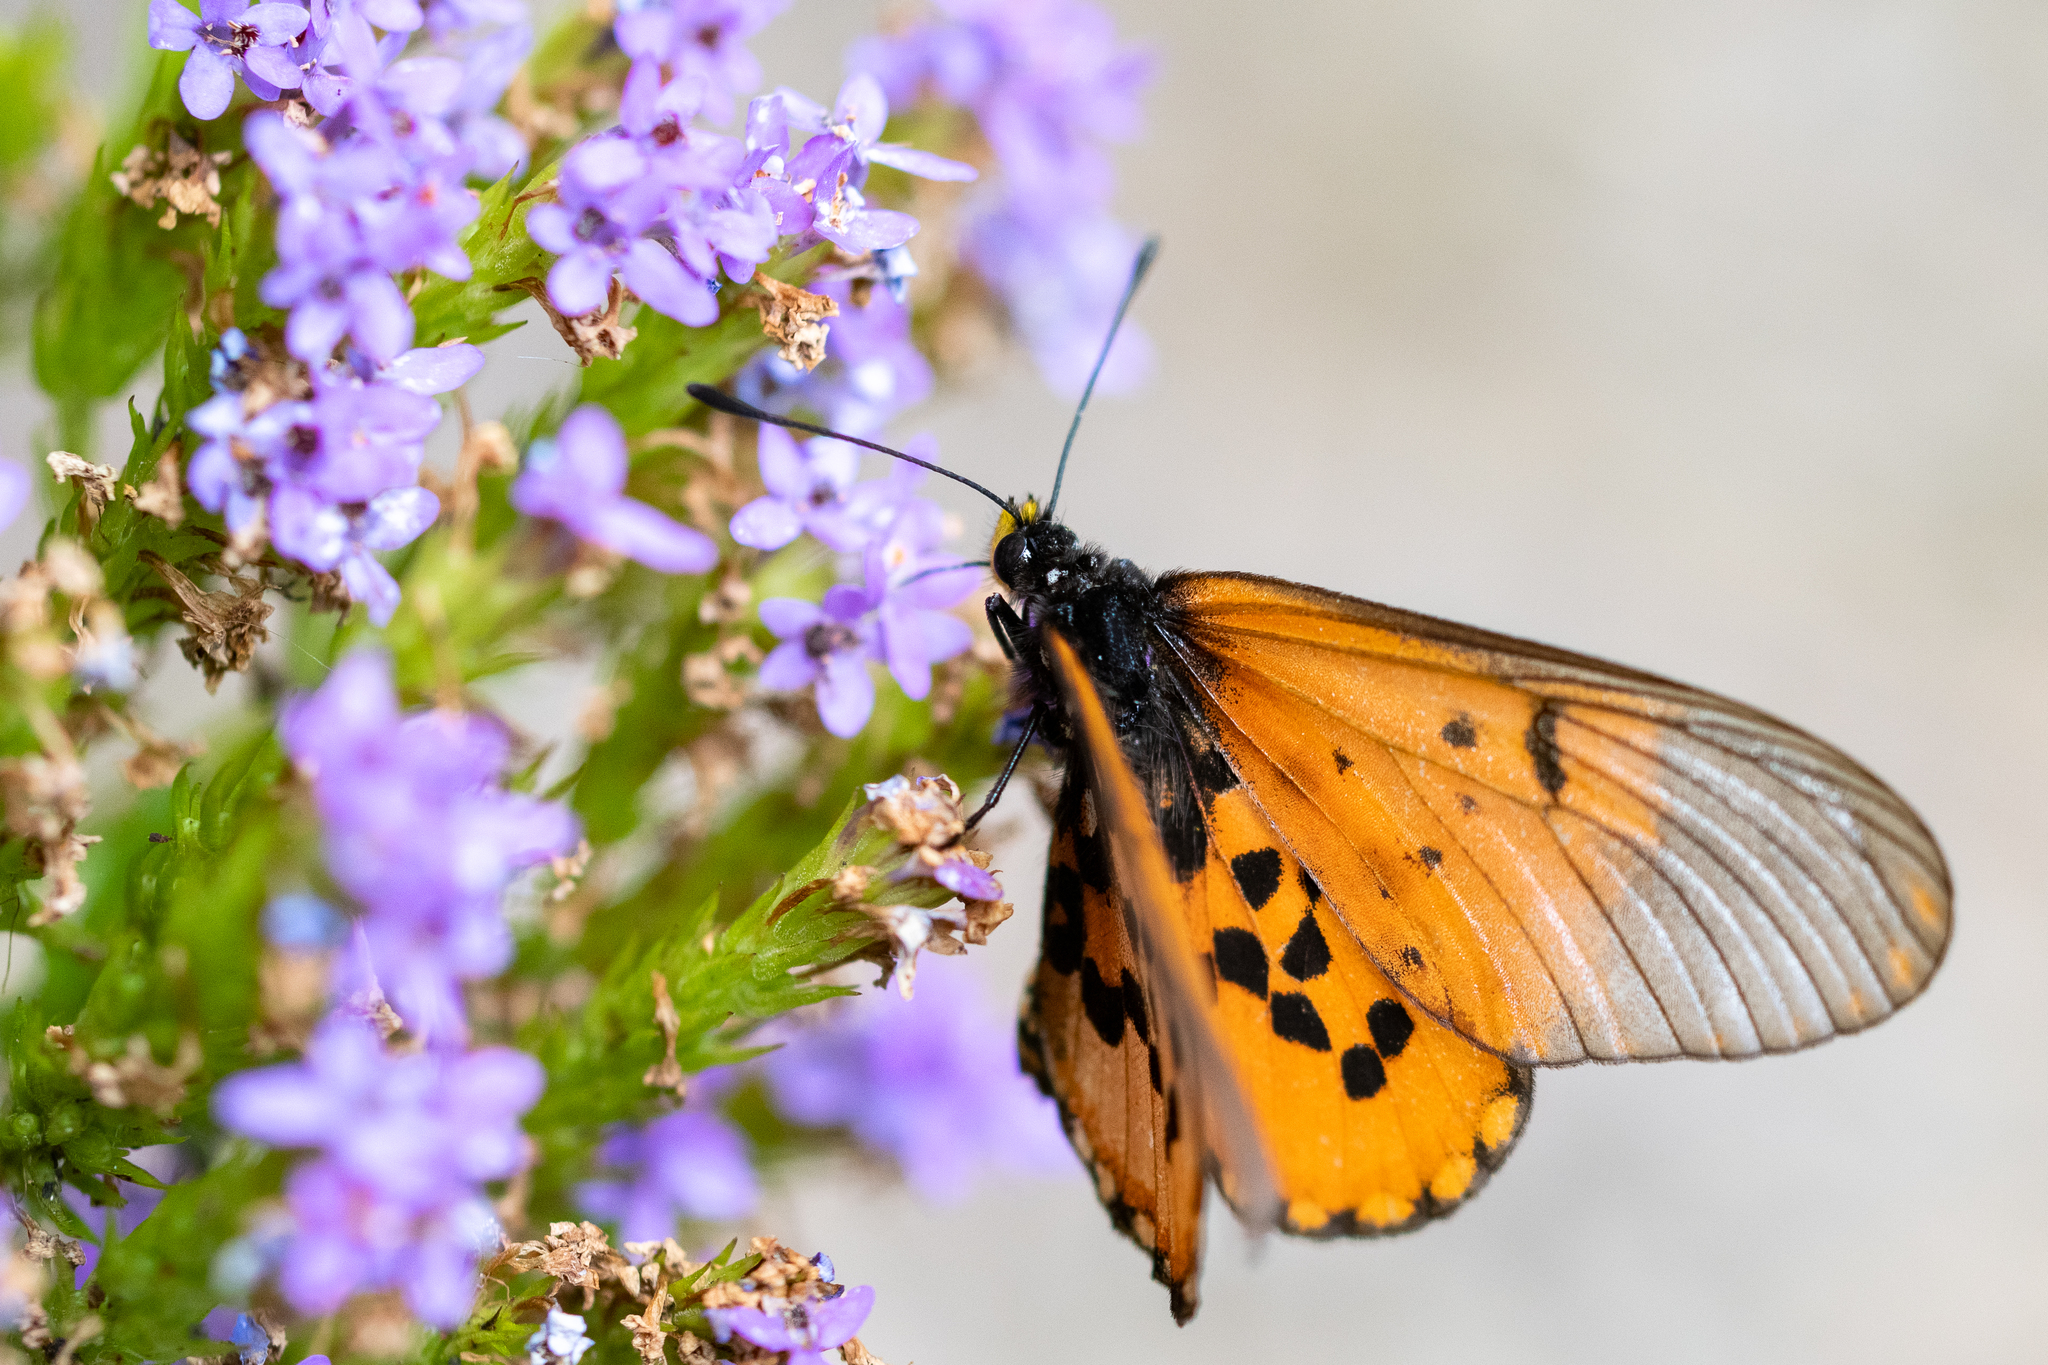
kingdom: Animalia
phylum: Arthropoda
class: Insecta
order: Lepidoptera
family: Nymphalidae
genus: Acraea
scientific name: Acraea horta
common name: Garden acraea
